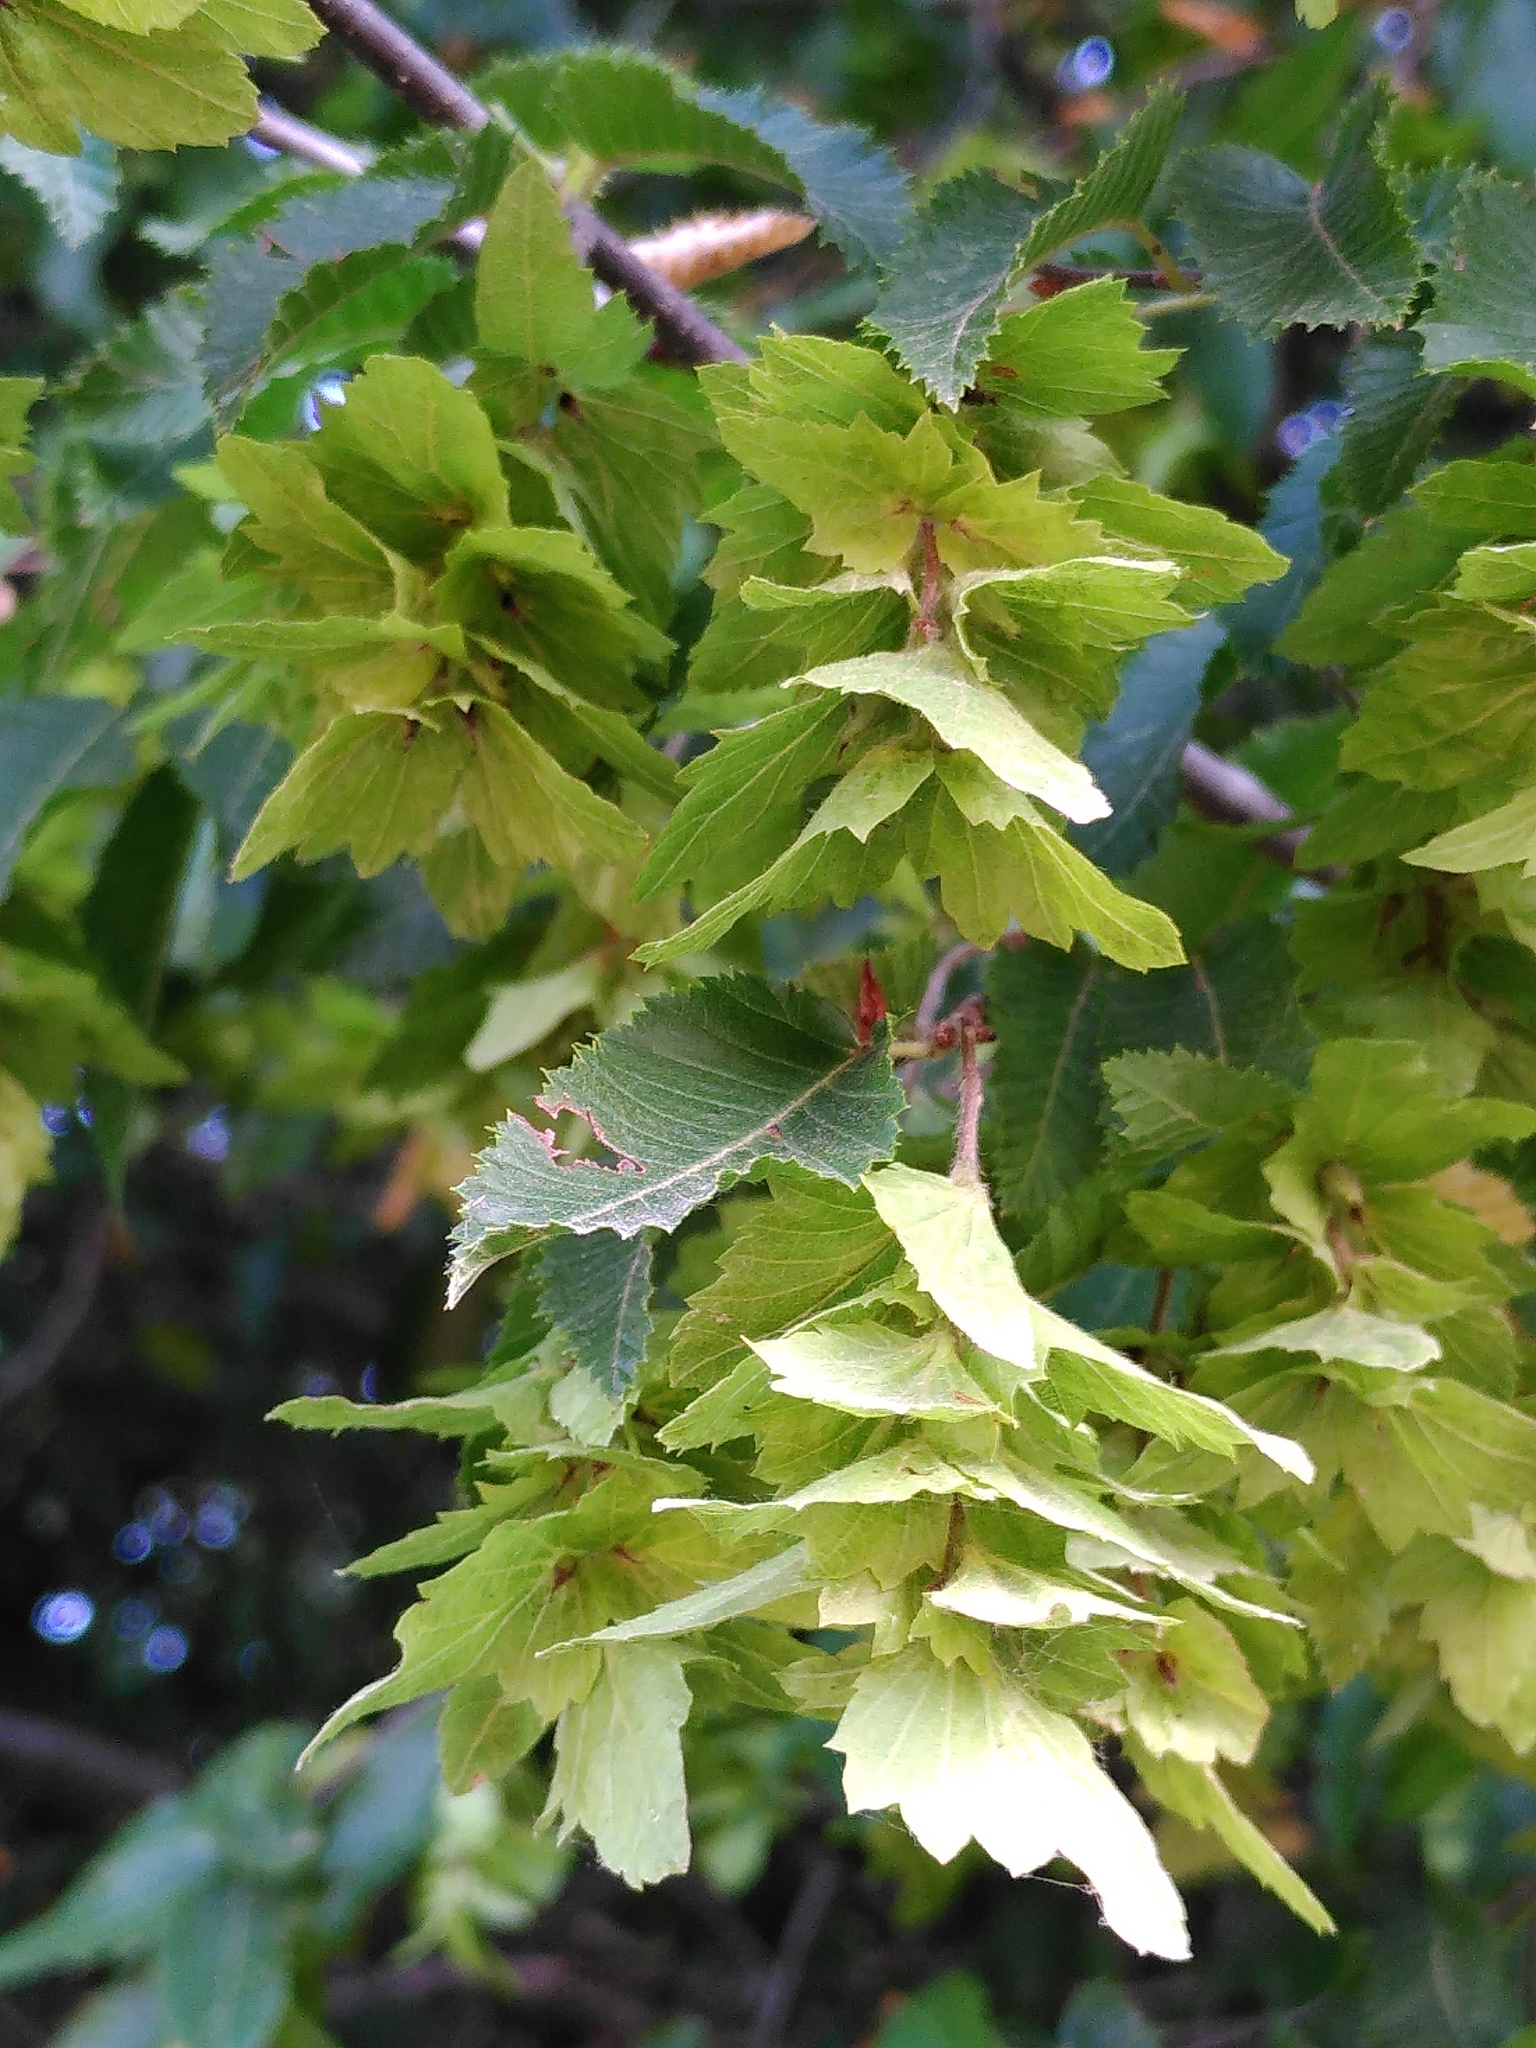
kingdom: Plantae
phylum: Tracheophyta
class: Magnoliopsida
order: Fagales
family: Betulaceae
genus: Carpinus
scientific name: Carpinus orientalis
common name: Eastern hornbeam
